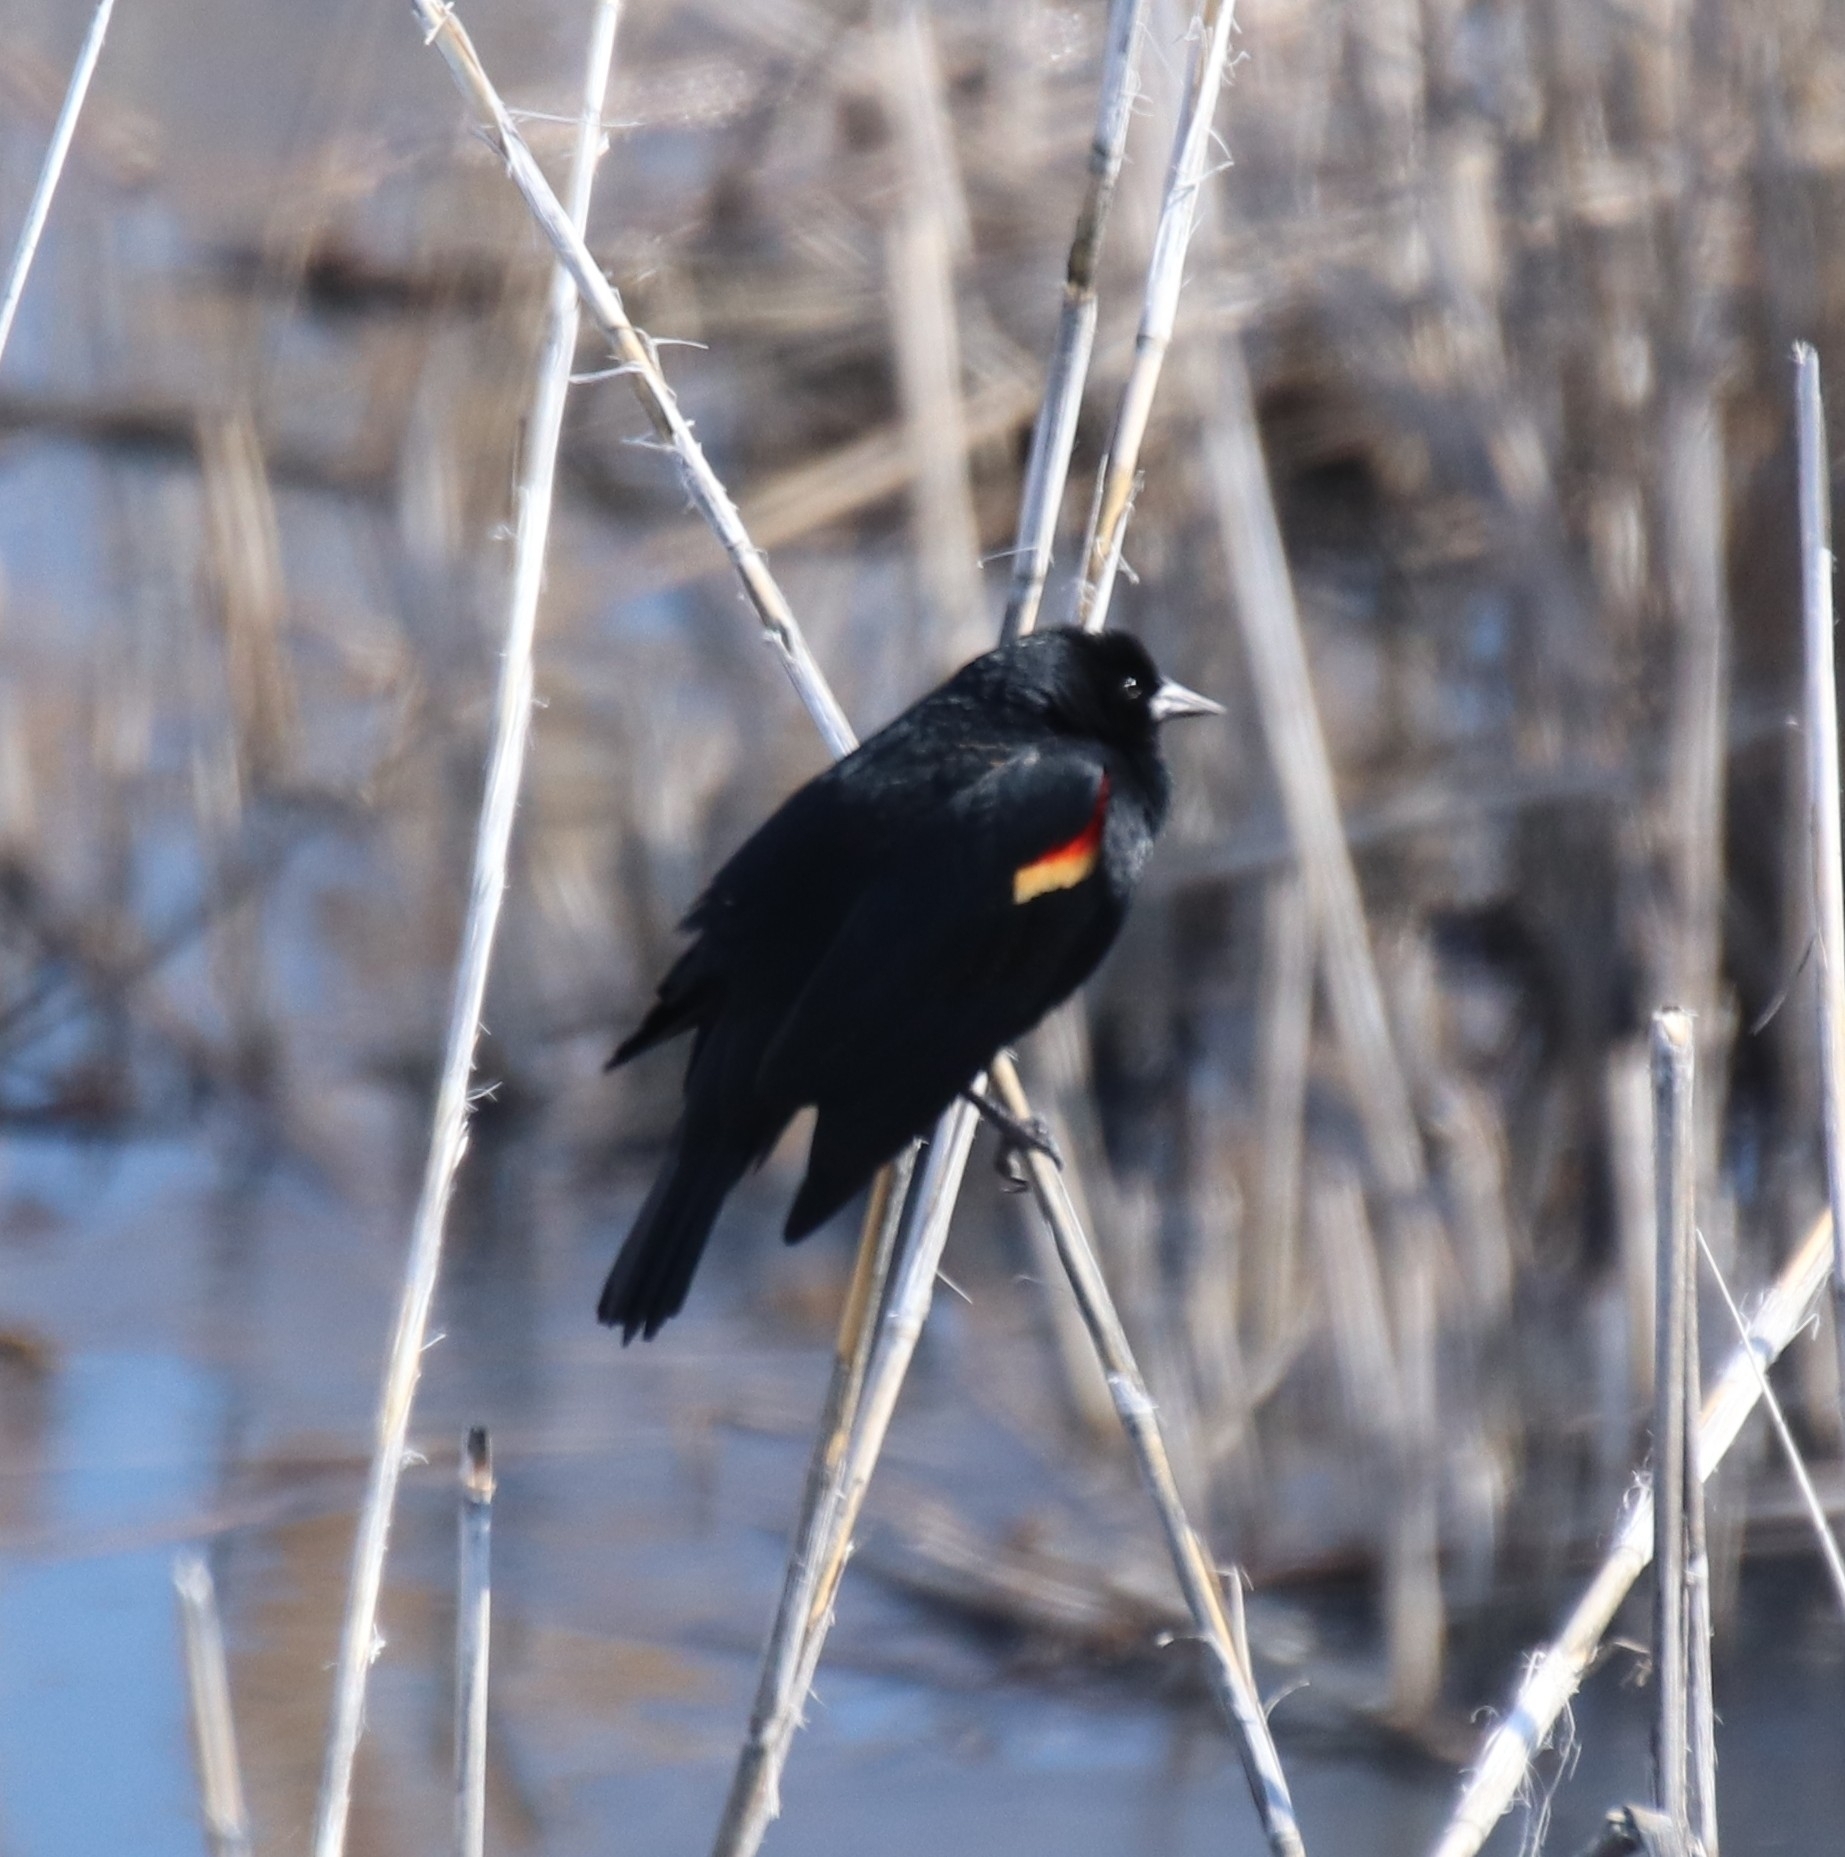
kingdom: Animalia
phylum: Chordata
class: Aves
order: Passeriformes
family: Icteridae
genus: Agelaius
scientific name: Agelaius phoeniceus
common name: Red-winged blackbird
